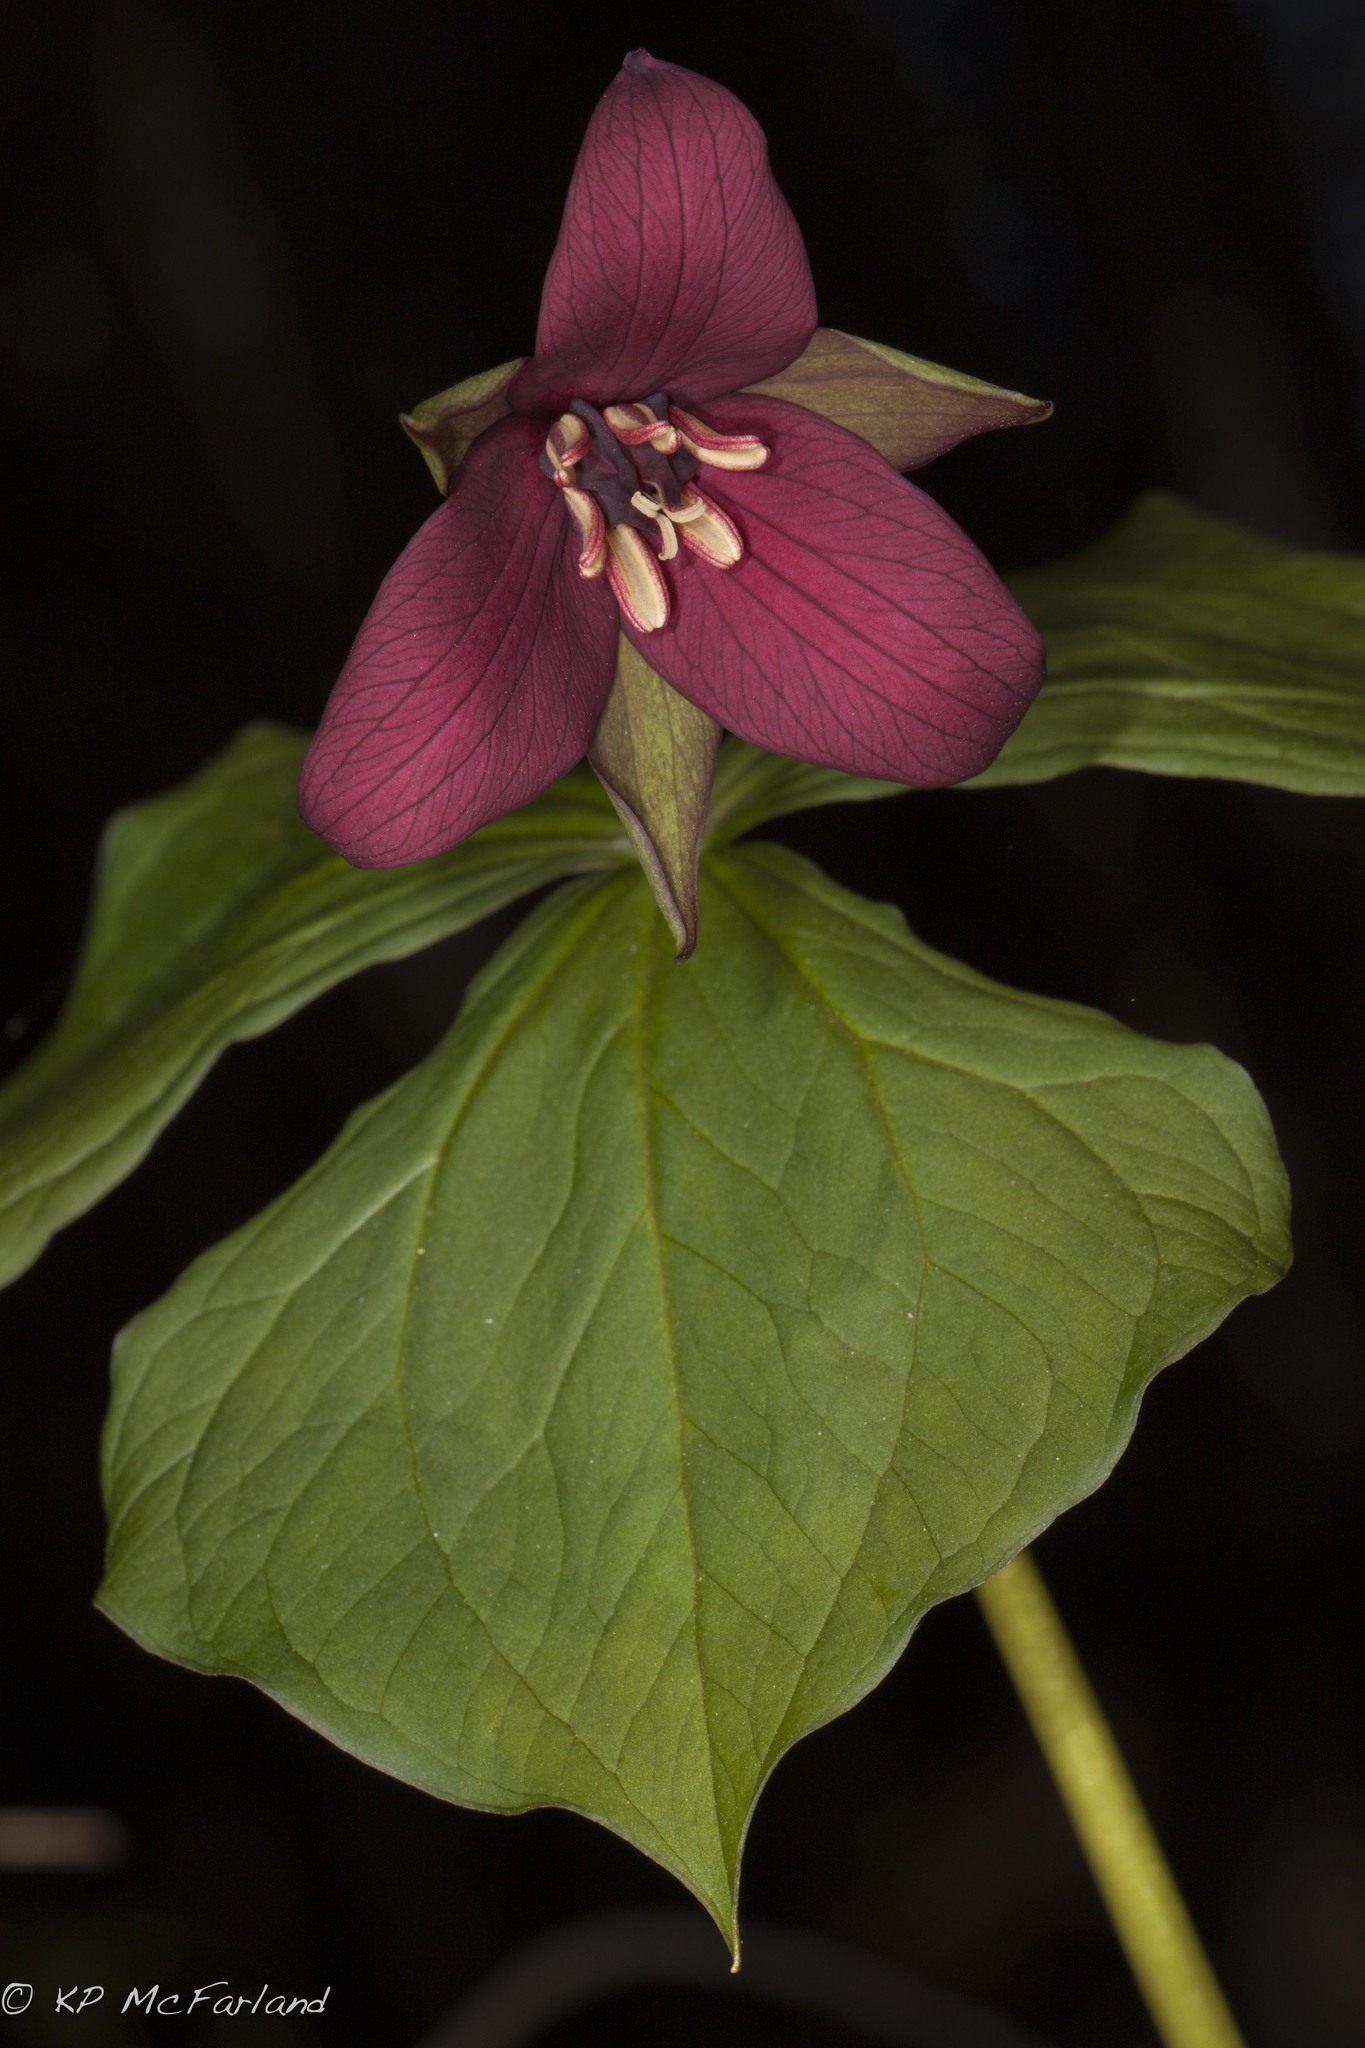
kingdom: Plantae
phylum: Tracheophyta
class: Liliopsida
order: Liliales
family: Melanthiaceae
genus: Trillium
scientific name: Trillium erectum
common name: Purple trillium
